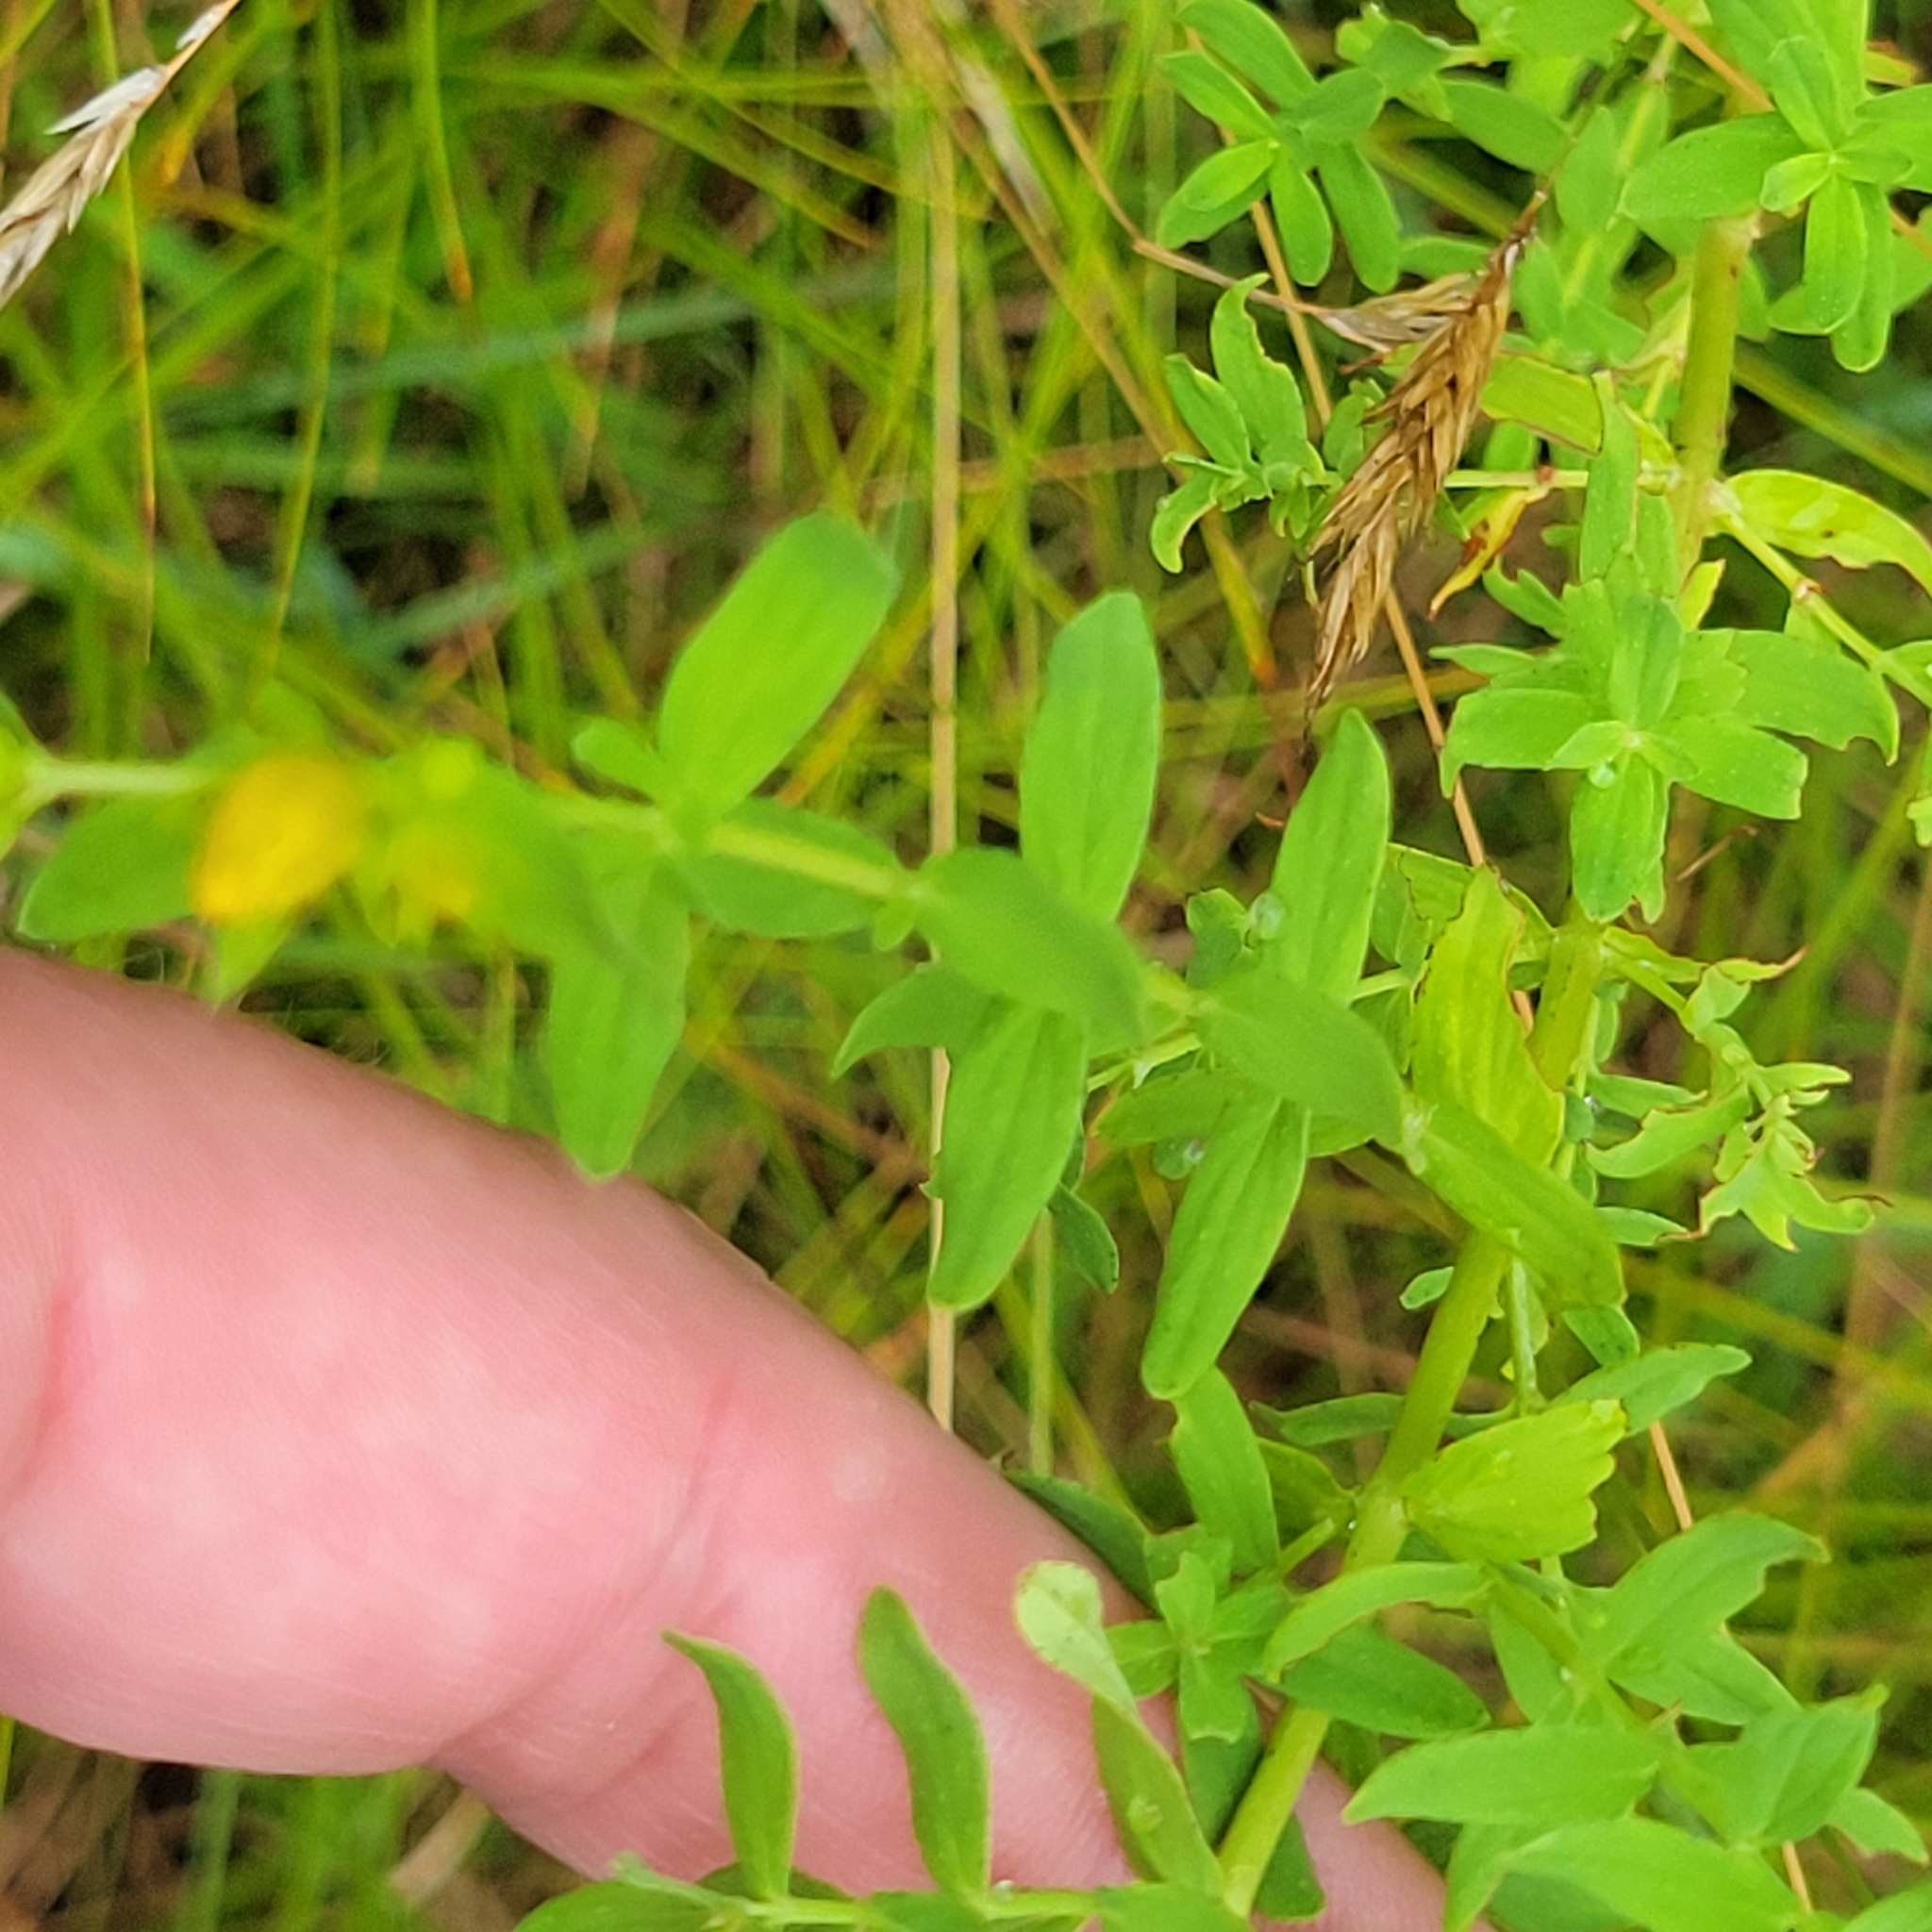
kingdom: Plantae
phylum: Tracheophyta
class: Magnoliopsida
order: Malpighiales
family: Hypericaceae
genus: Hypericum
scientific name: Hypericum perforatum
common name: Common st. johnswort
